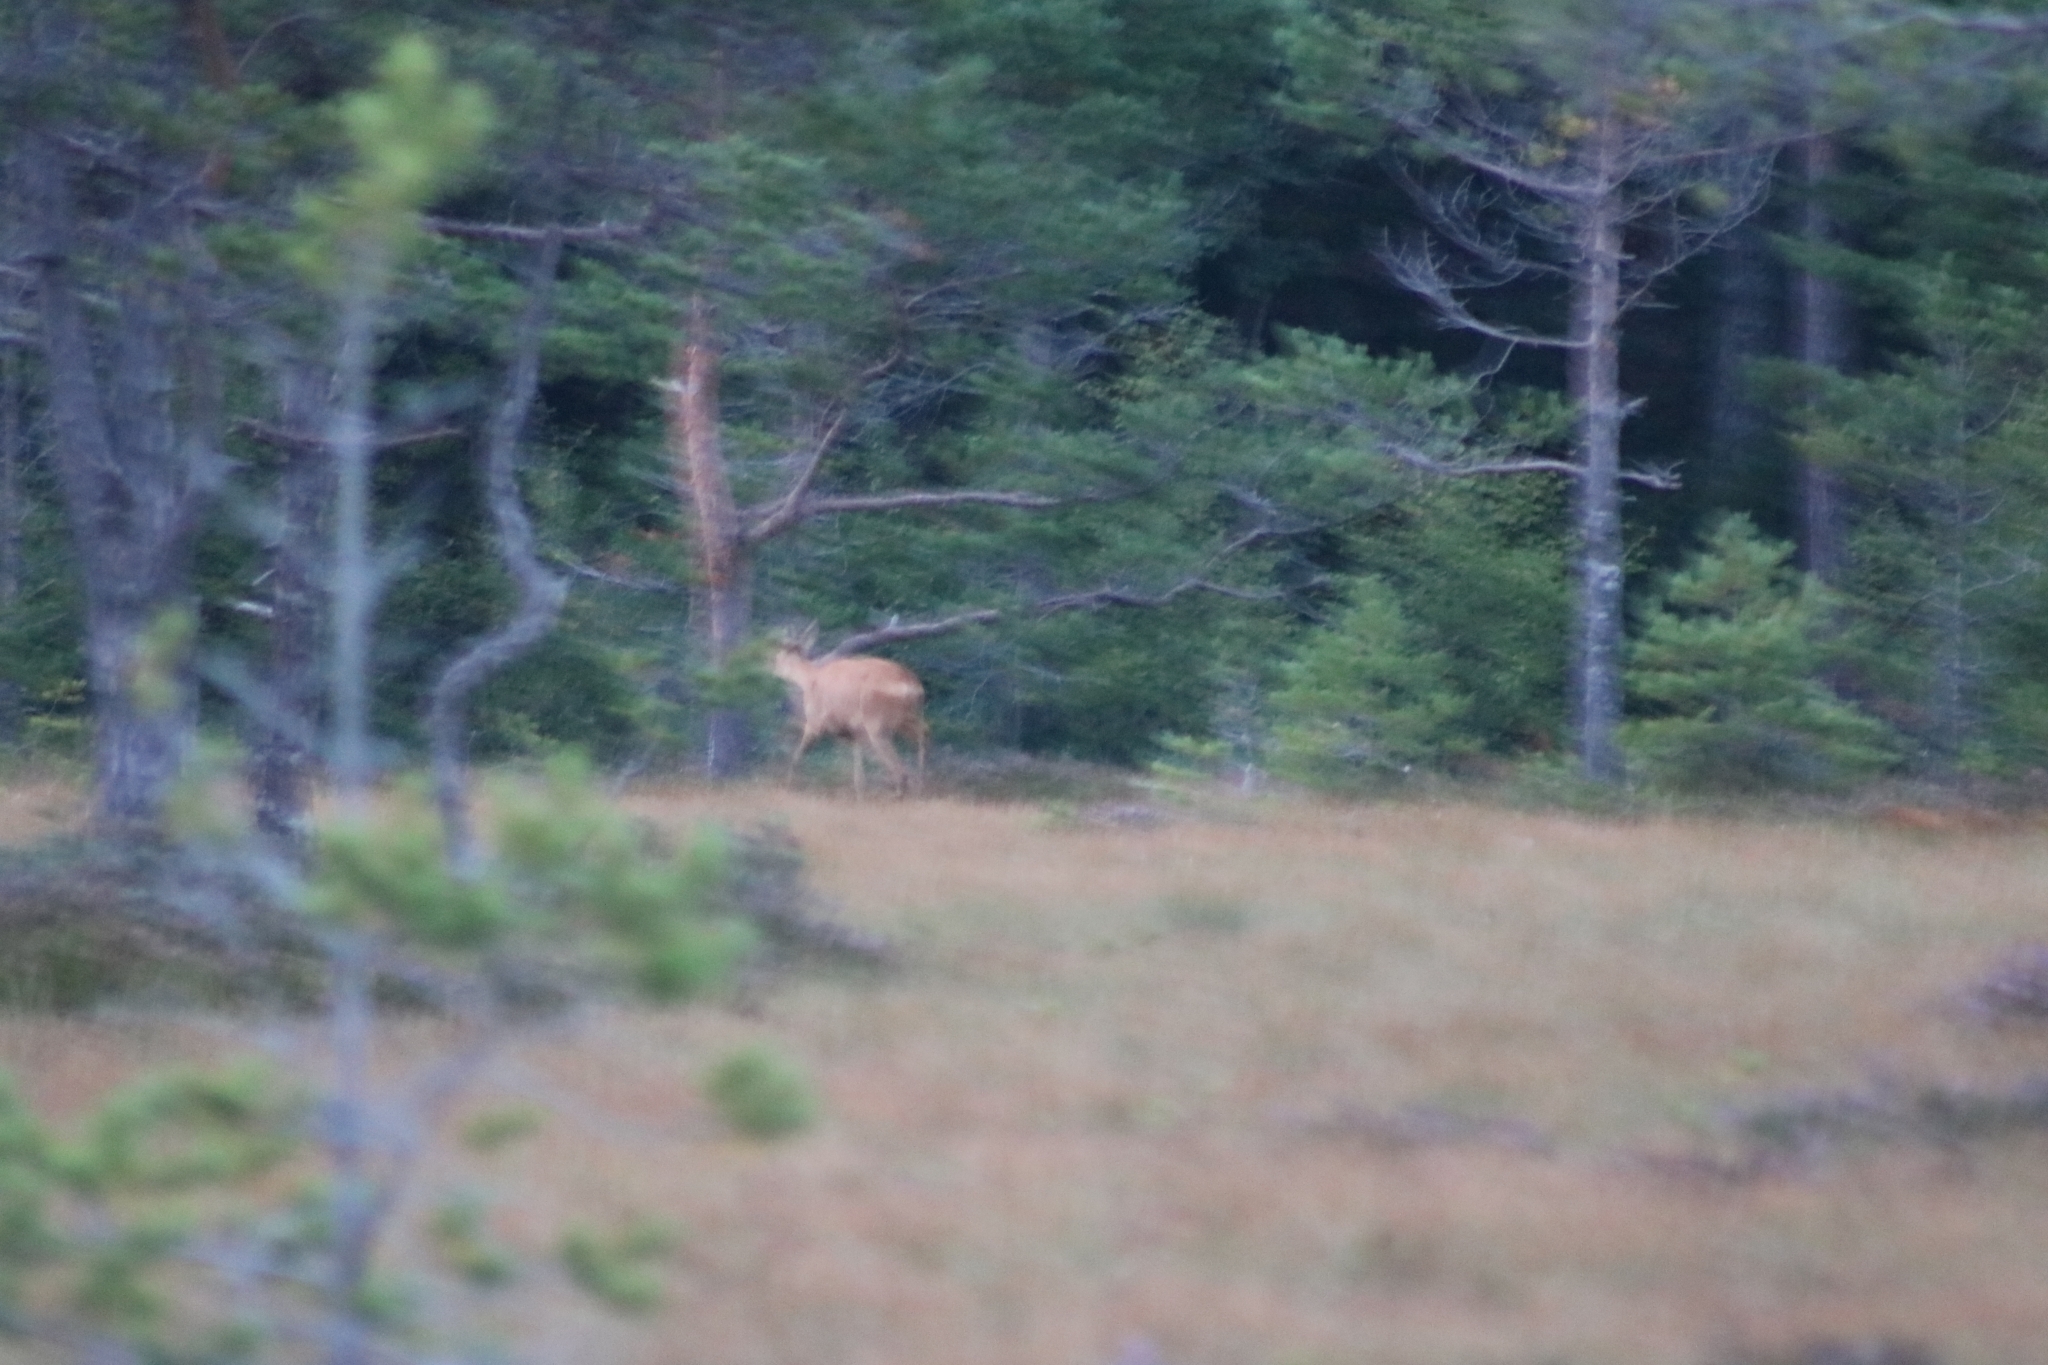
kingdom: Animalia
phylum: Chordata
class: Mammalia
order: Artiodactyla
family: Cervidae
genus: Capreolus
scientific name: Capreolus capreolus
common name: Western roe deer
